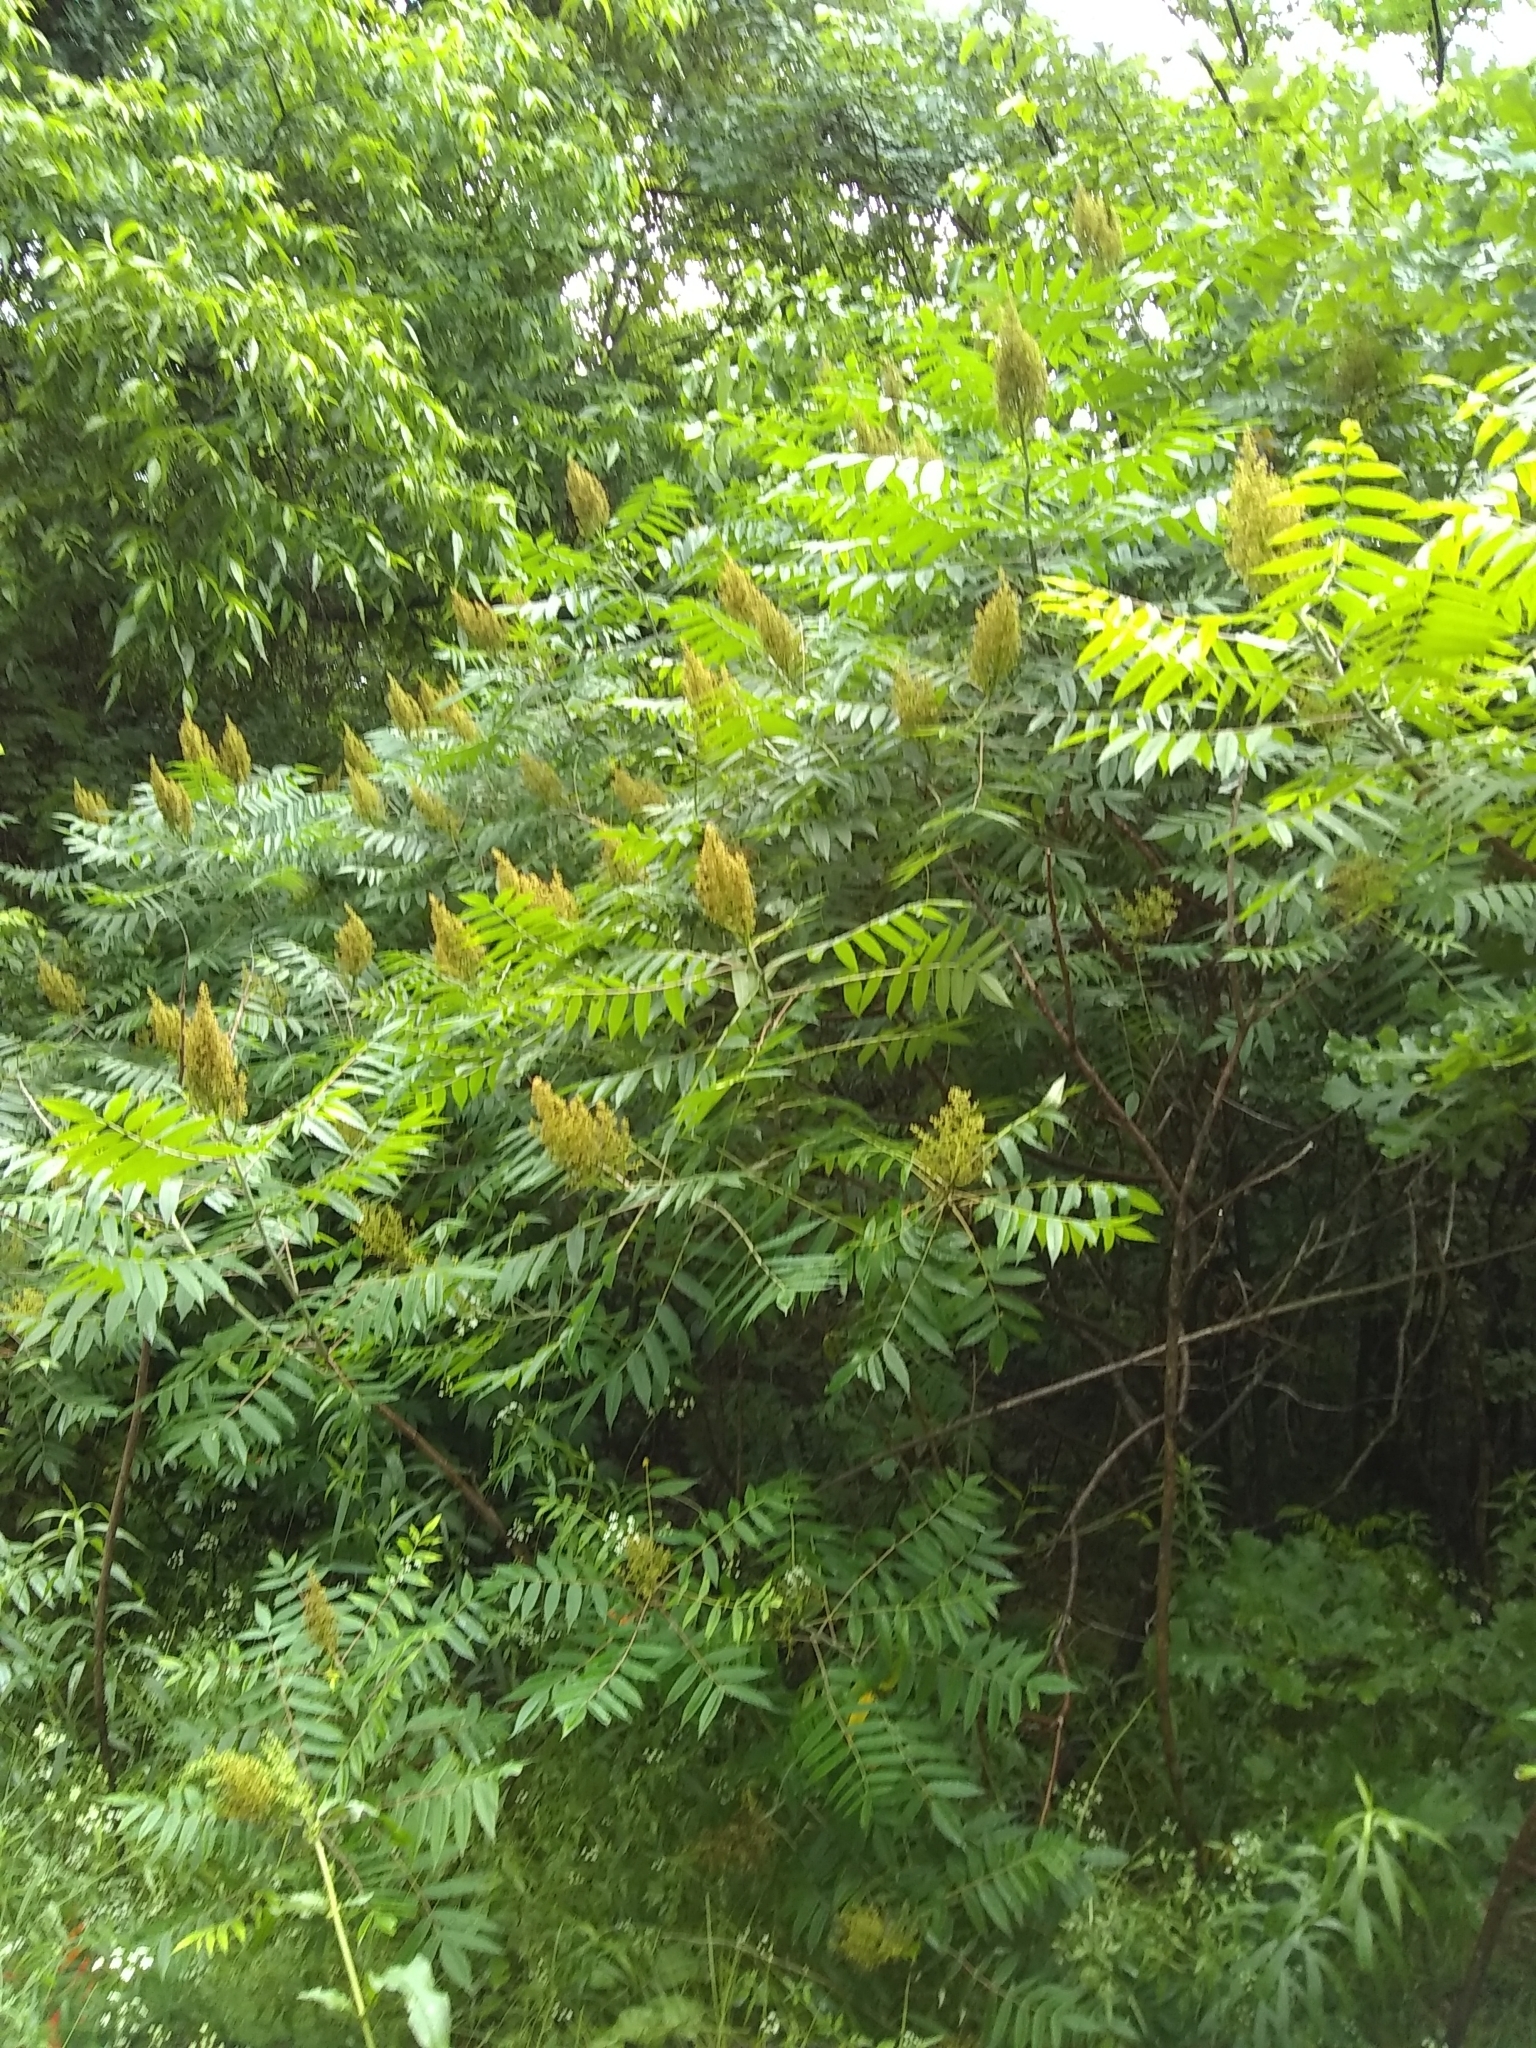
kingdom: Plantae
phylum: Tracheophyta
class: Magnoliopsida
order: Sapindales
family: Anacardiaceae
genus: Rhus
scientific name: Rhus glabra
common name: Scarlet sumac
